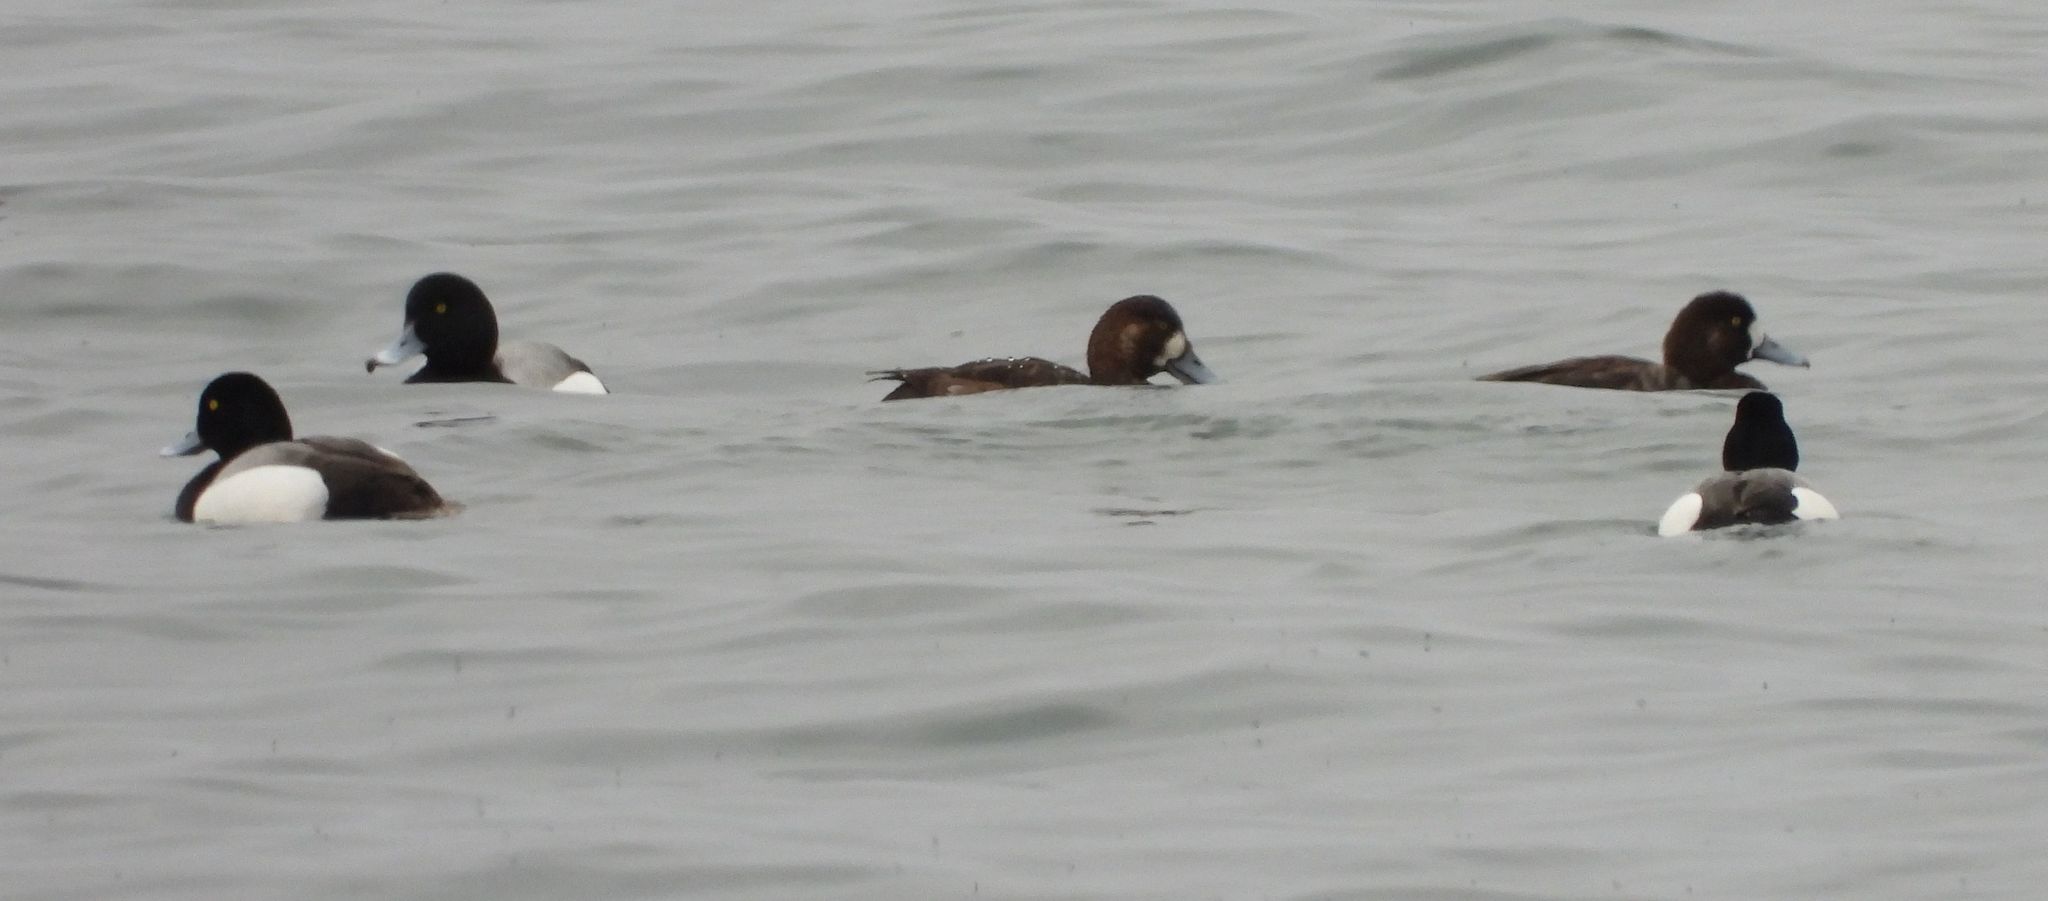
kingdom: Animalia
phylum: Chordata
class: Aves
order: Anseriformes
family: Anatidae
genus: Aythya
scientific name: Aythya marila
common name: Greater scaup
